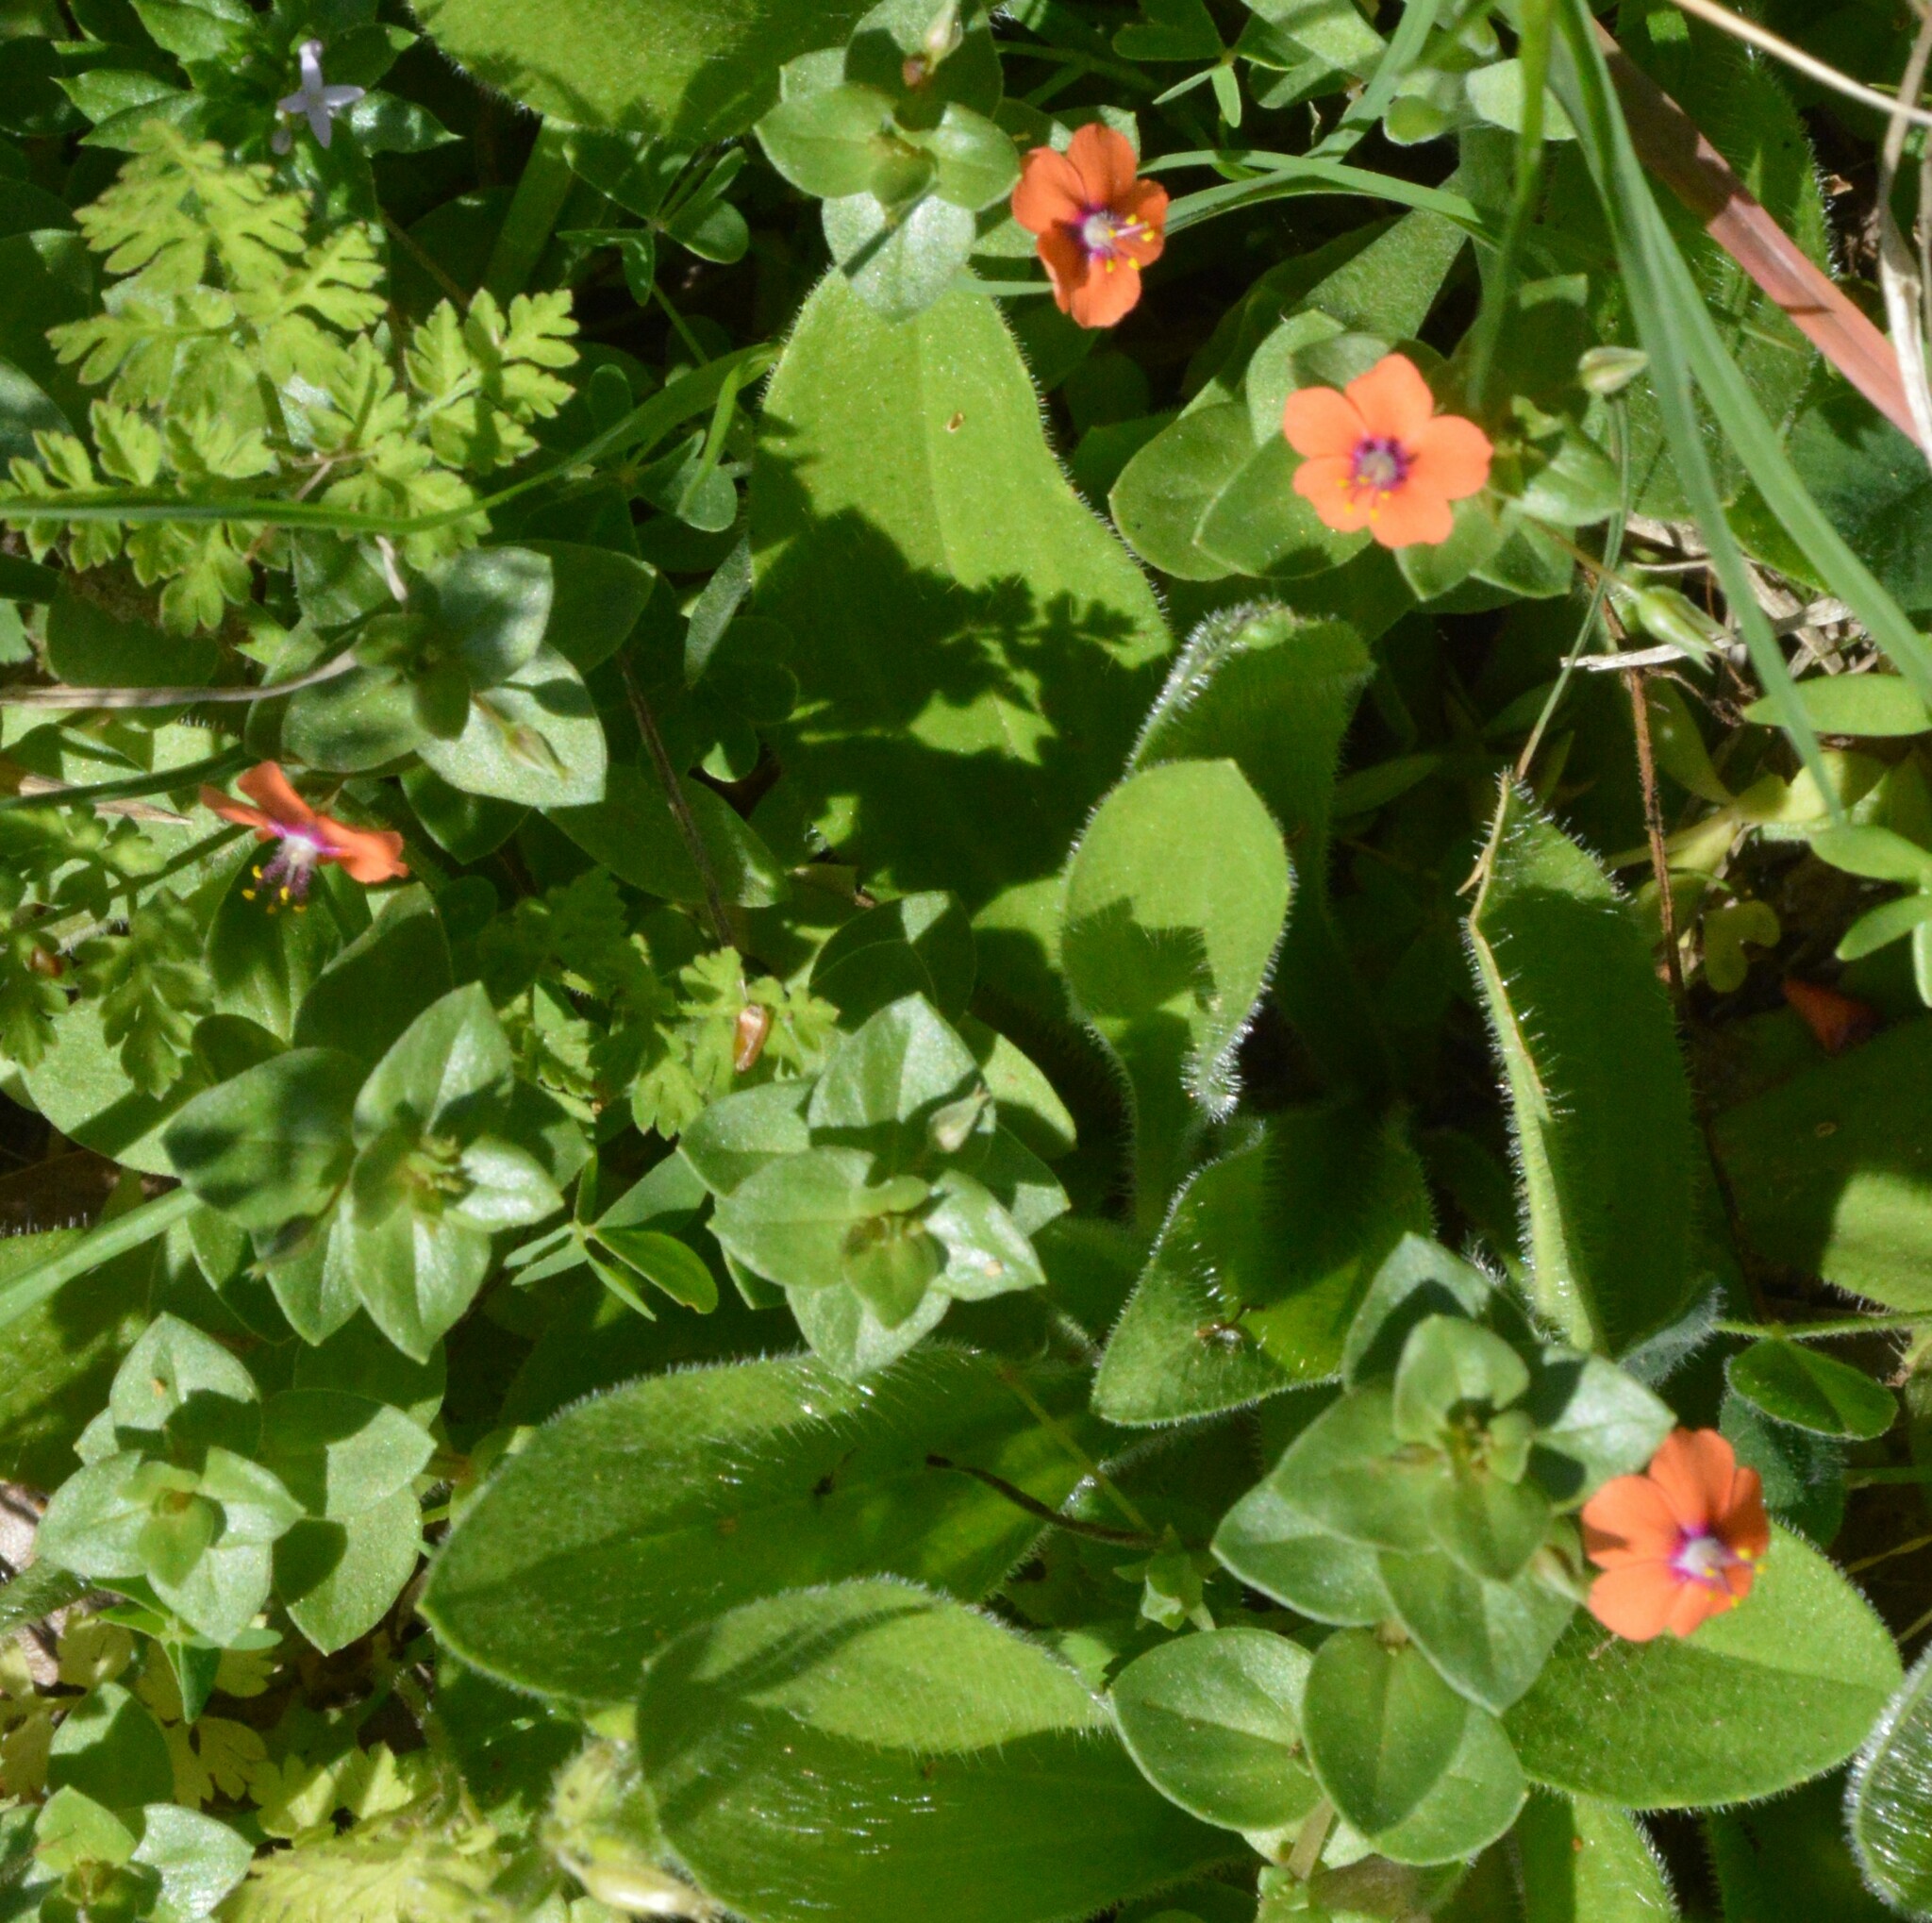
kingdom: Plantae
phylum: Tracheophyta
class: Magnoliopsida
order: Ericales
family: Primulaceae
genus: Lysimachia
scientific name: Lysimachia arvensis
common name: Scarlet pimpernel
